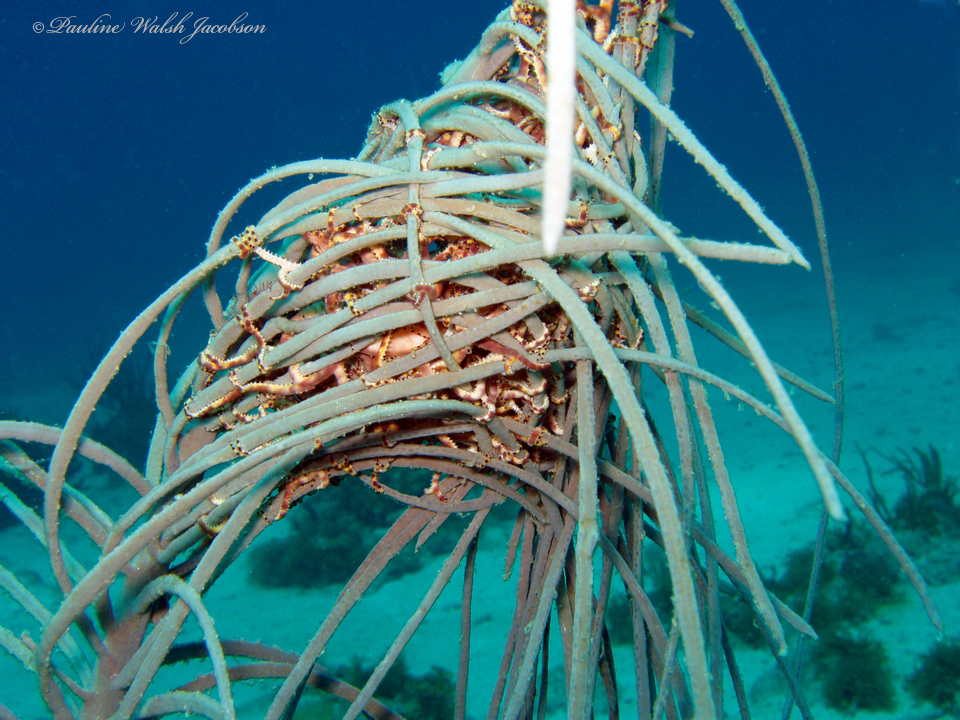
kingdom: Animalia
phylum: Echinodermata
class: Ophiuroidea
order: Euryalida
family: Gorgonocephalidae
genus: Astrophyton
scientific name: Astrophyton muricatum
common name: Basket starfish
